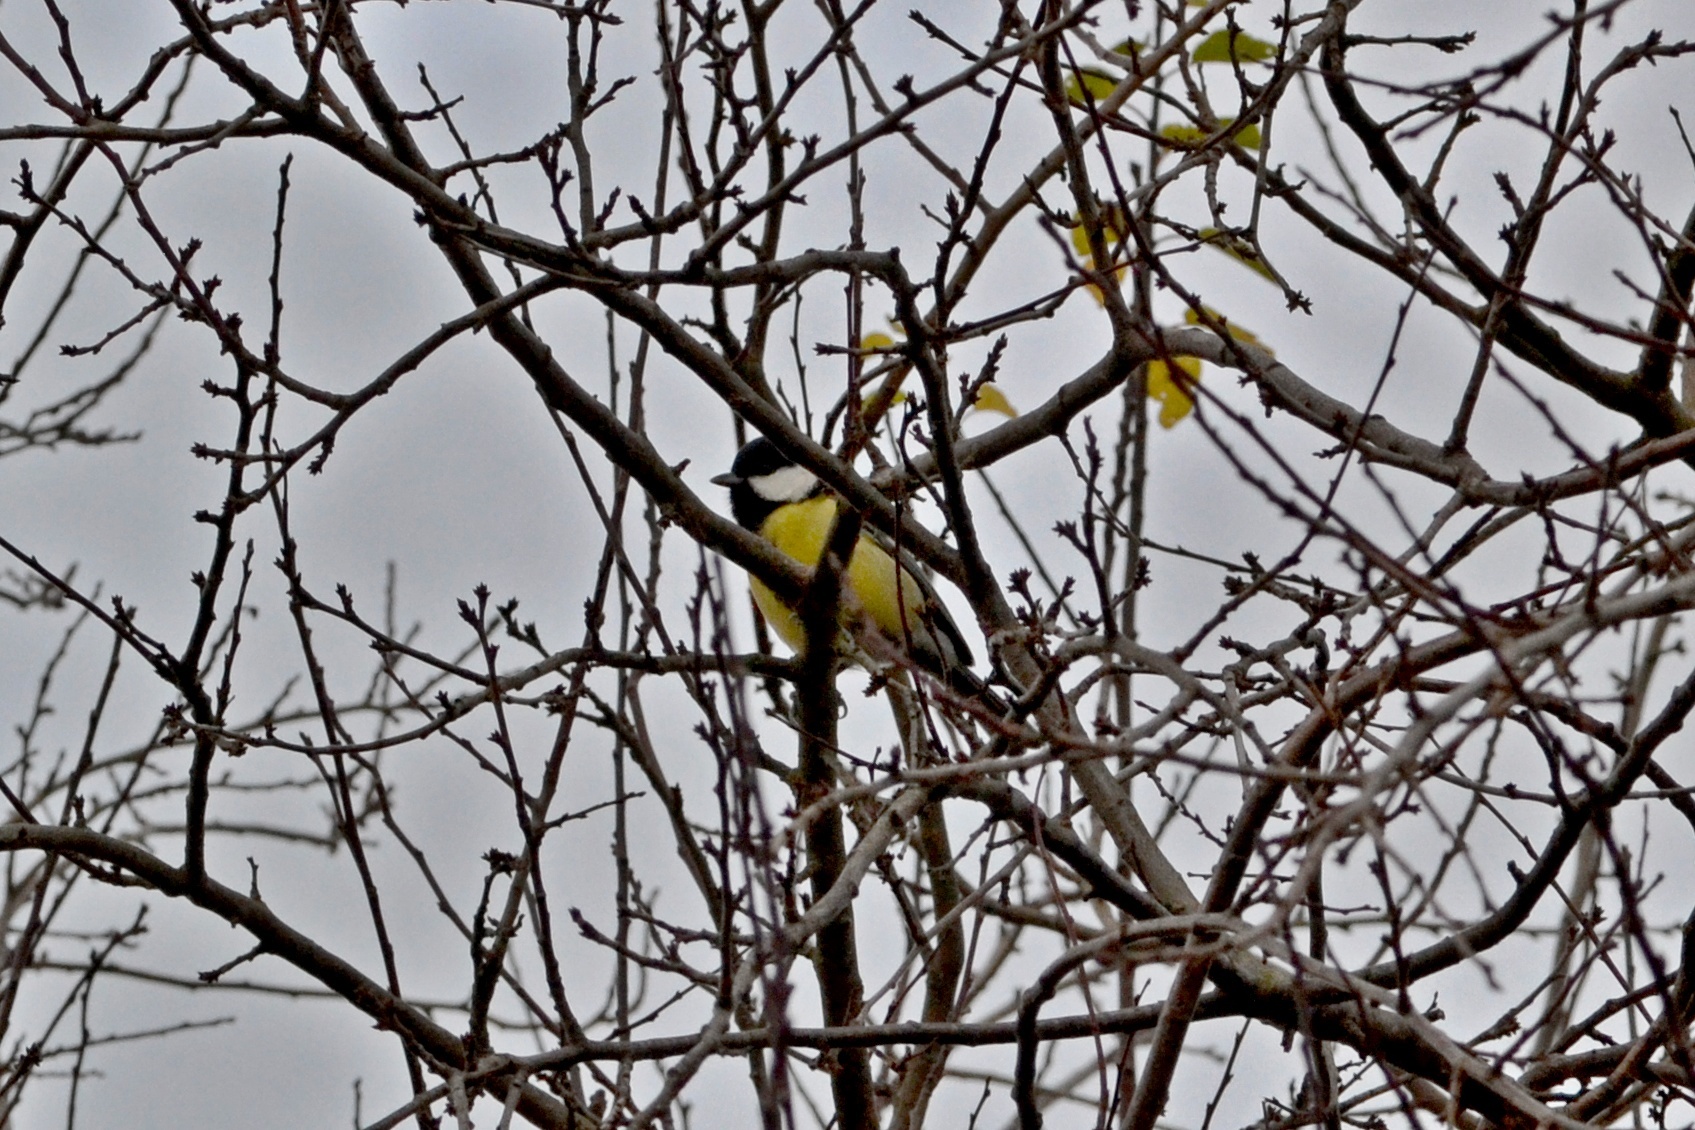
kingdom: Animalia
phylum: Chordata
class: Aves
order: Passeriformes
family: Paridae
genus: Parus
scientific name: Parus major
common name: Great tit
